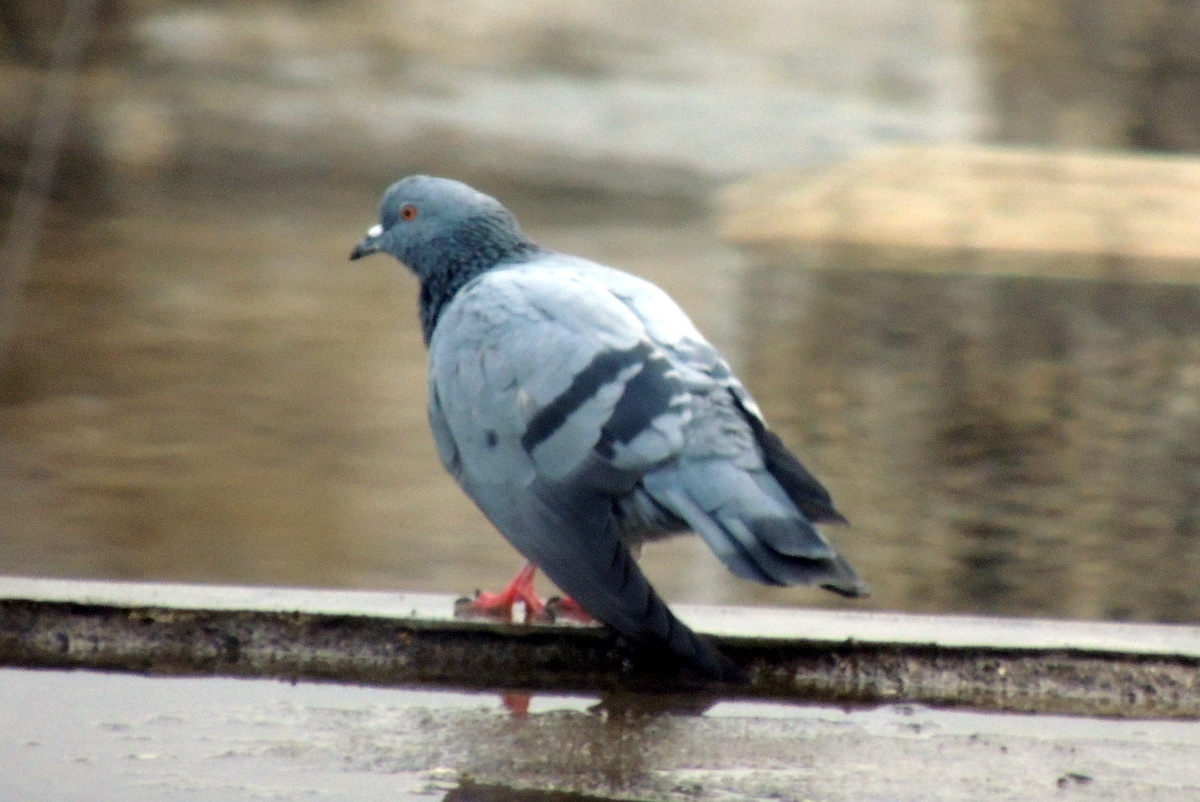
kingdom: Animalia
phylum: Chordata
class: Aves
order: Columbiformes
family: Columbidae
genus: Columba
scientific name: Columba livia
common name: Rock pigeon
